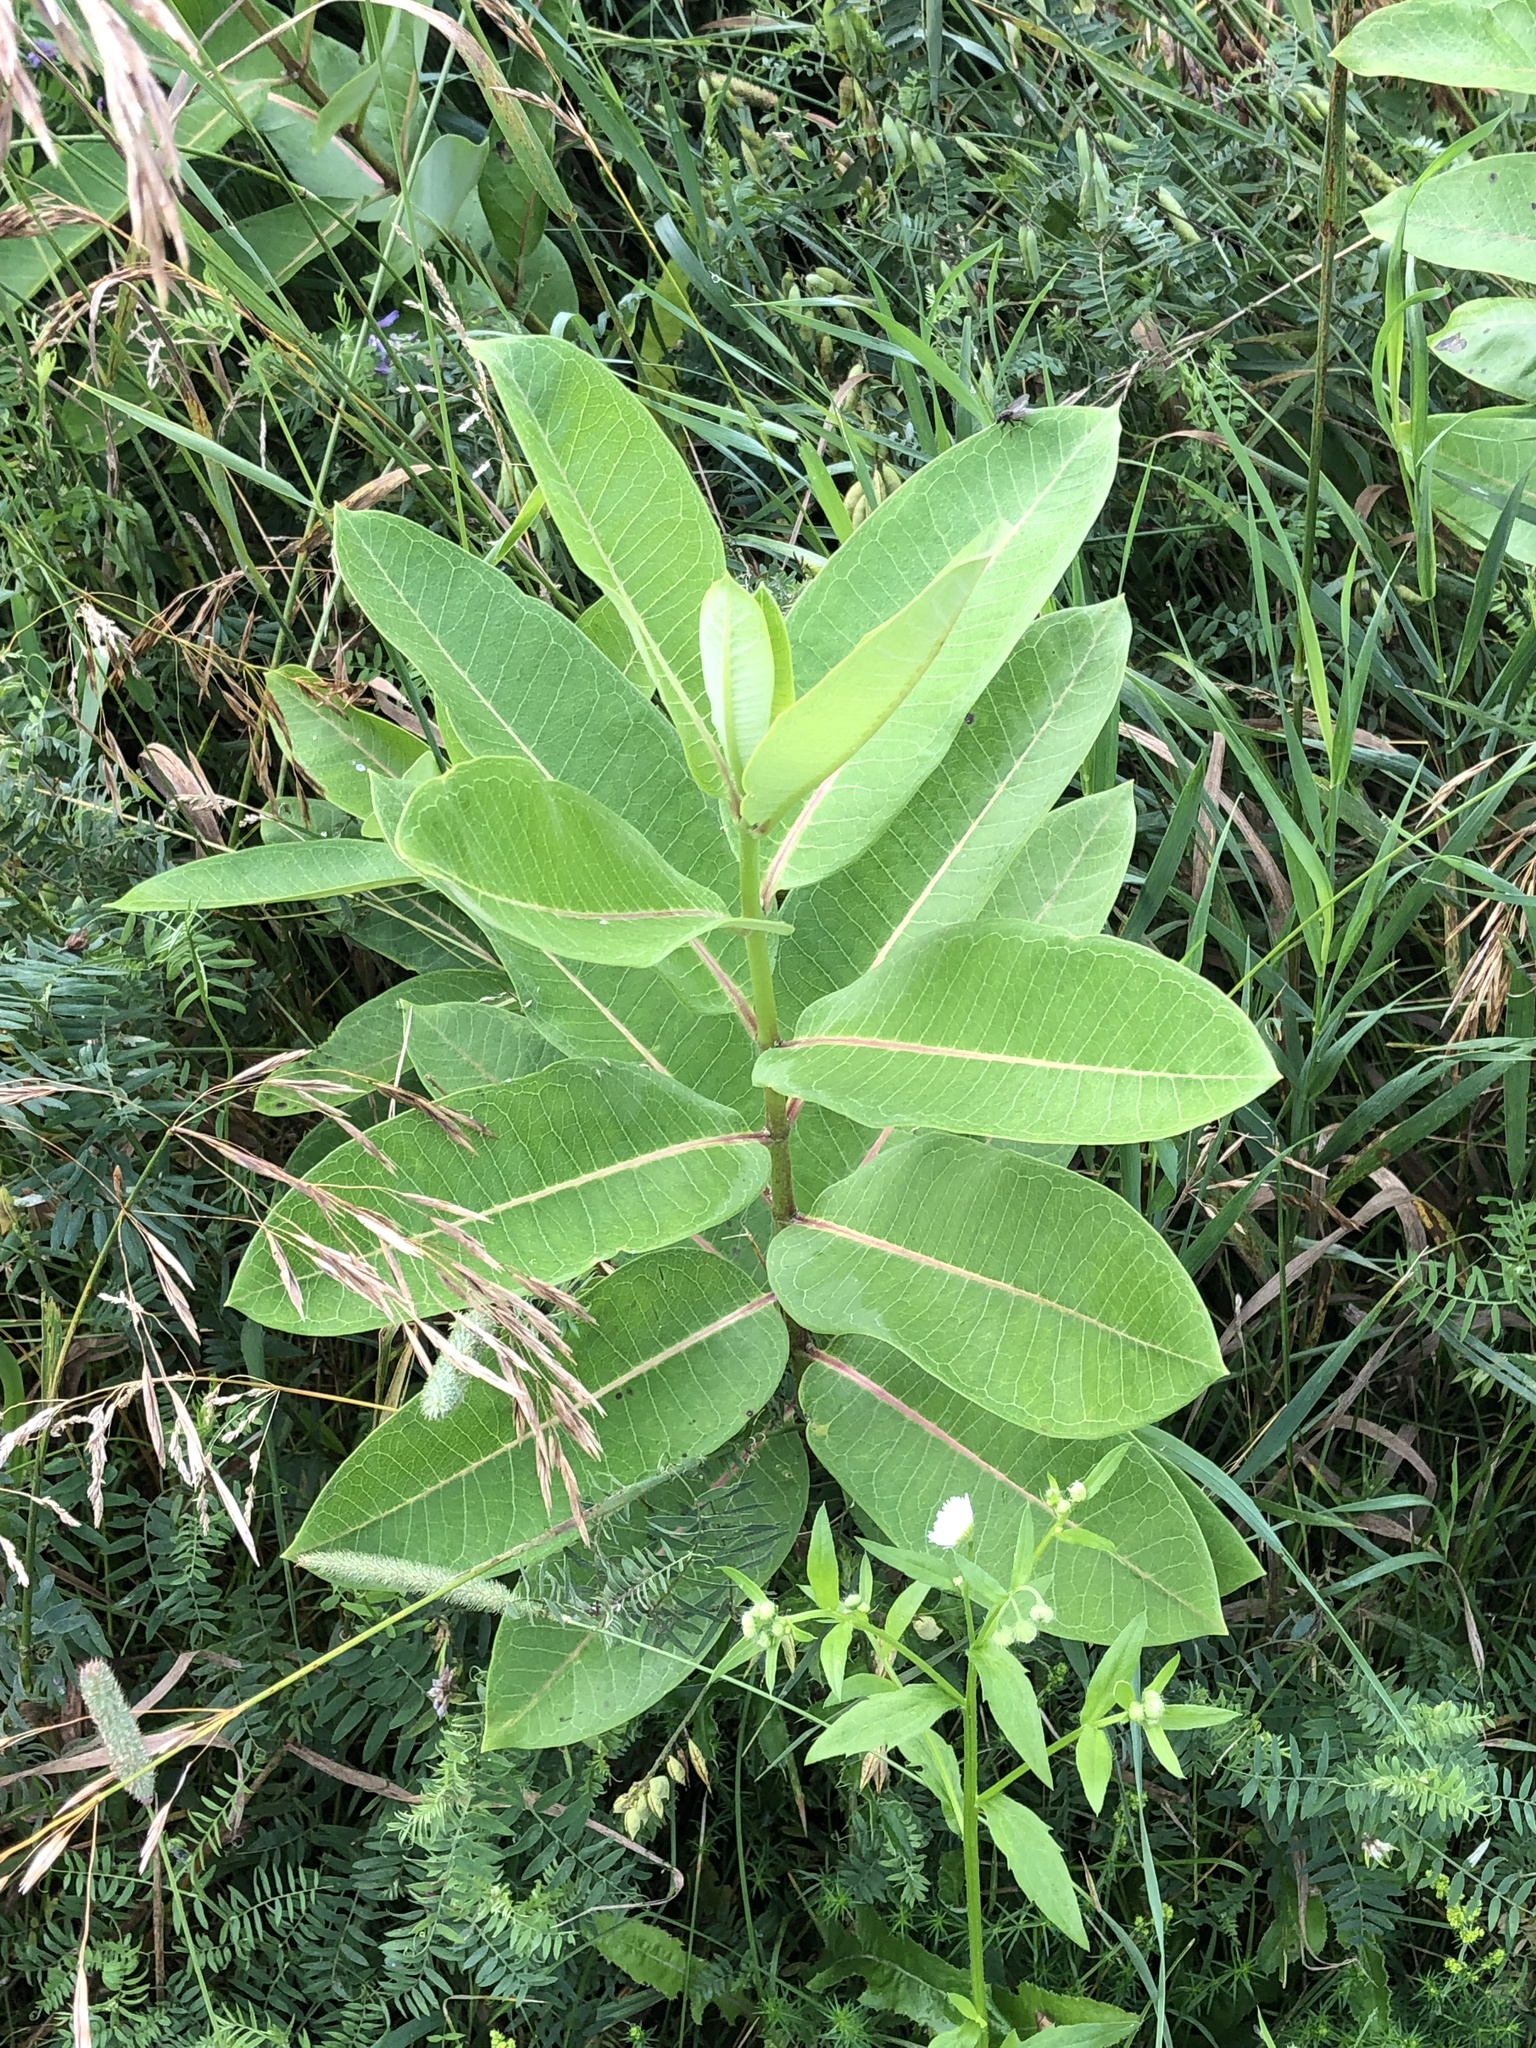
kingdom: Plantae
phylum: Tracheophyta
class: Magnoliopsida
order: Gentianales
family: Apocynaceae
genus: Asclepias
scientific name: Asclepias syriaca
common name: Common milkweed
